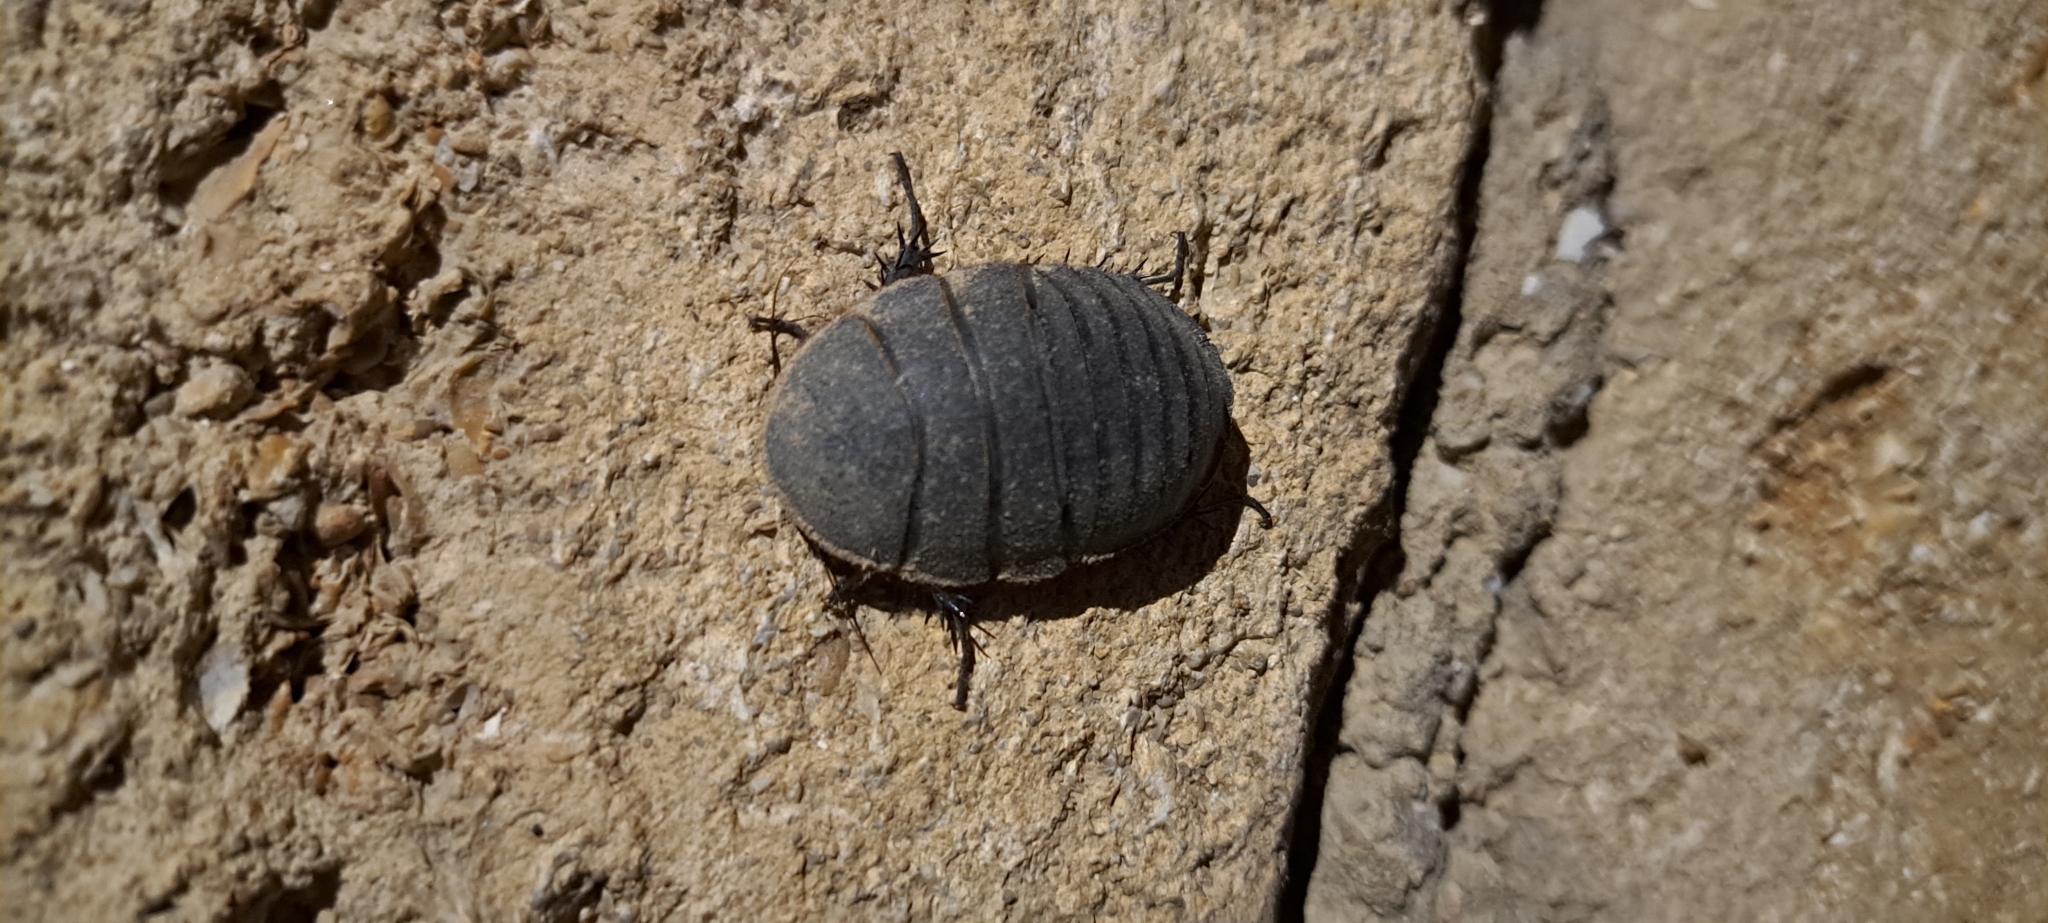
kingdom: Animalia
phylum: Arthropoda
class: Insecta
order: Blattodea
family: Corydiidae
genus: Polyphaga
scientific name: Polyphaga aegyptiaca
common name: Egyptian cockroach
